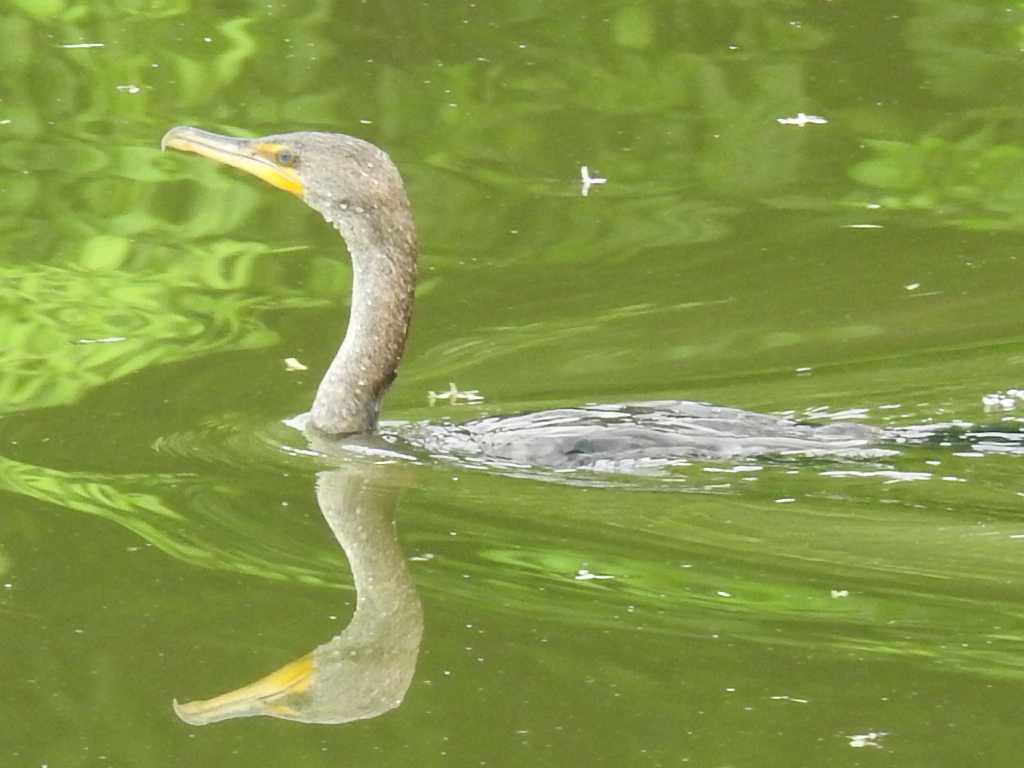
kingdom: Animalia
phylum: Chordata
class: Aves
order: Suliformes
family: Phalacrocoracidae
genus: Phalacrocorax
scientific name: Phalacrocorax auritus
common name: Double-crested cormorant
